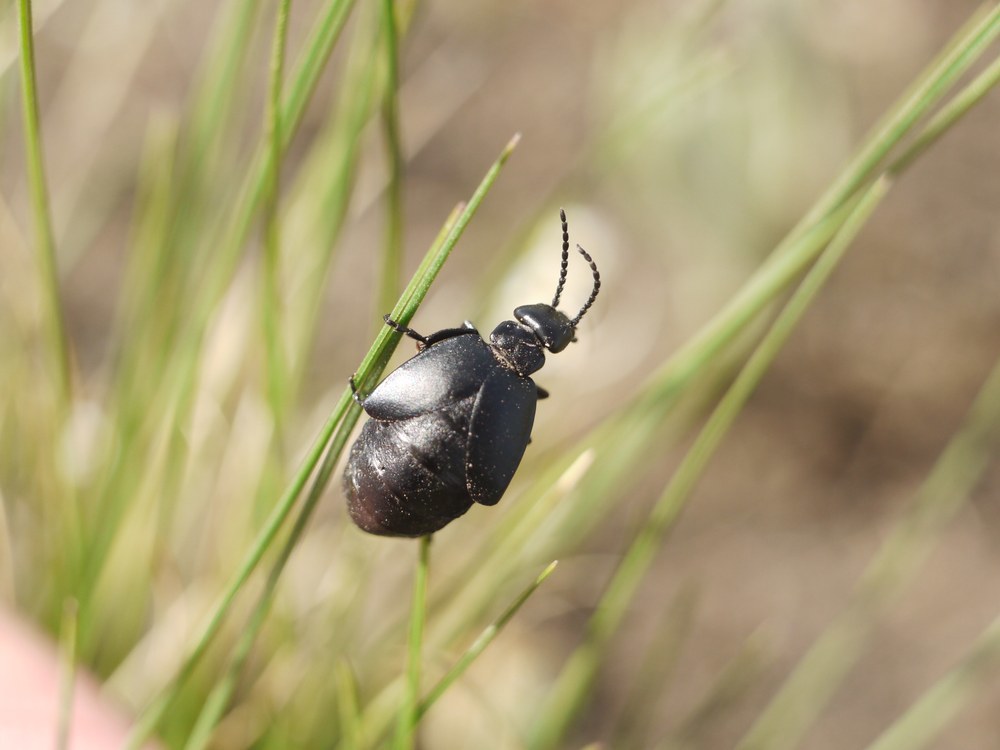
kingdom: Animalia
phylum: Arthropoda
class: Insecta
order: Coleoptera
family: Meloidae
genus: Meloe
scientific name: Meloe uralensis
